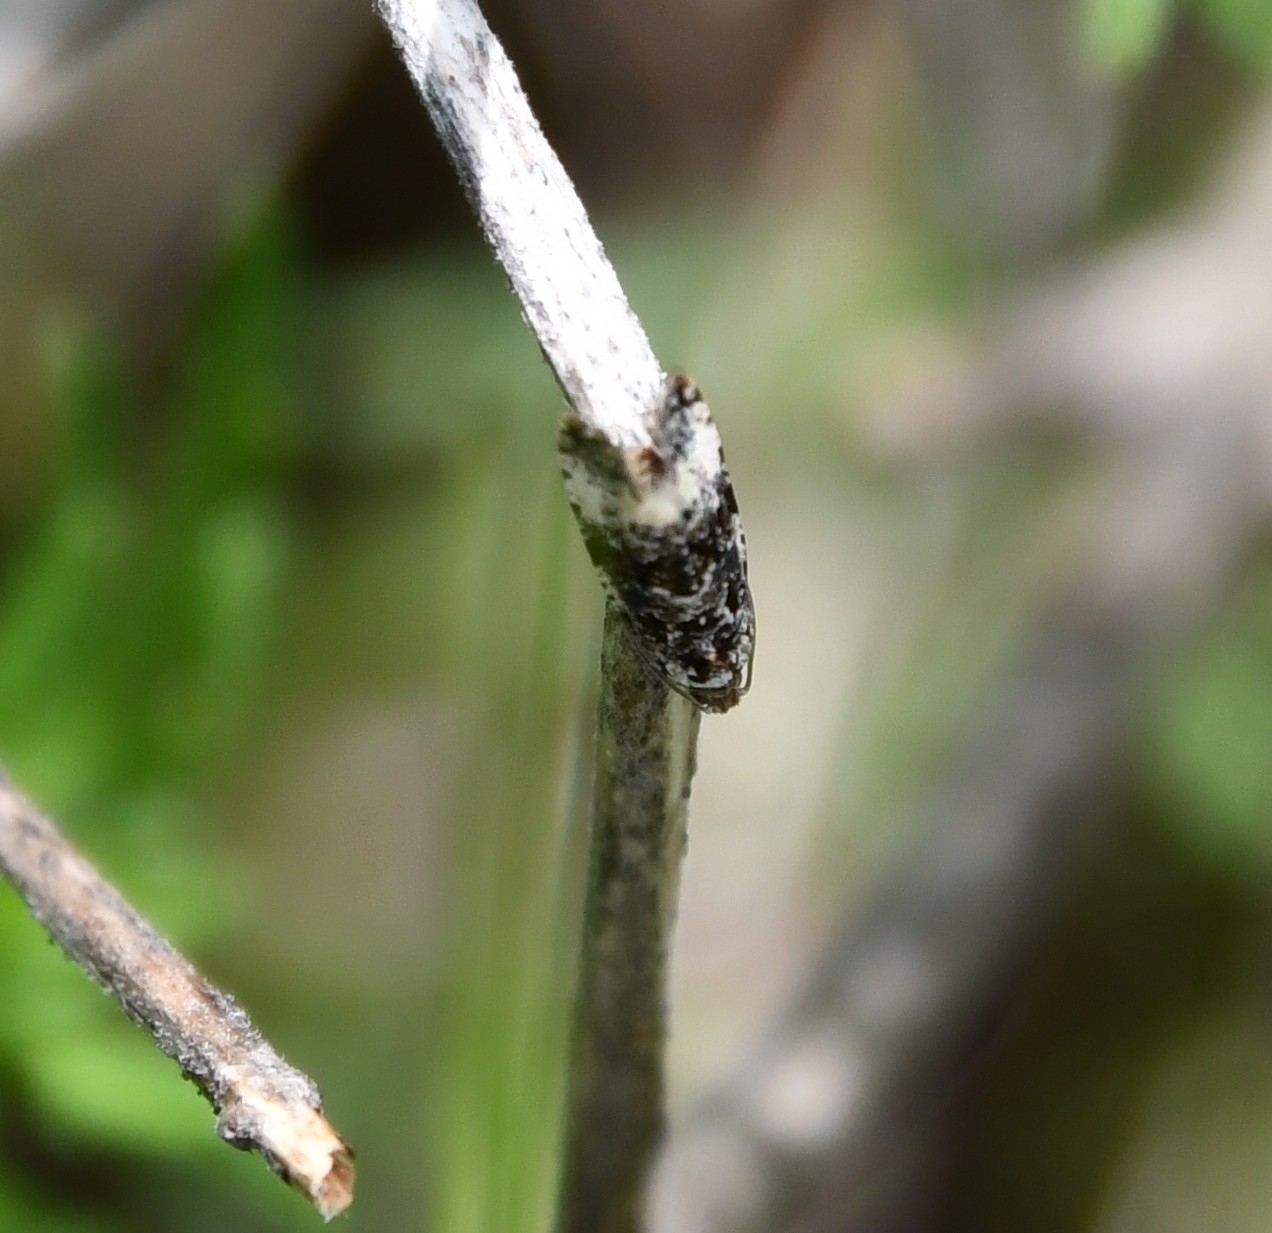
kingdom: Animalia
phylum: Arthropoda
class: Insecta
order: Lepidoptera
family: Tortricidae
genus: Hedya
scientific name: Hedya pruniana
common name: Plum tortrix
